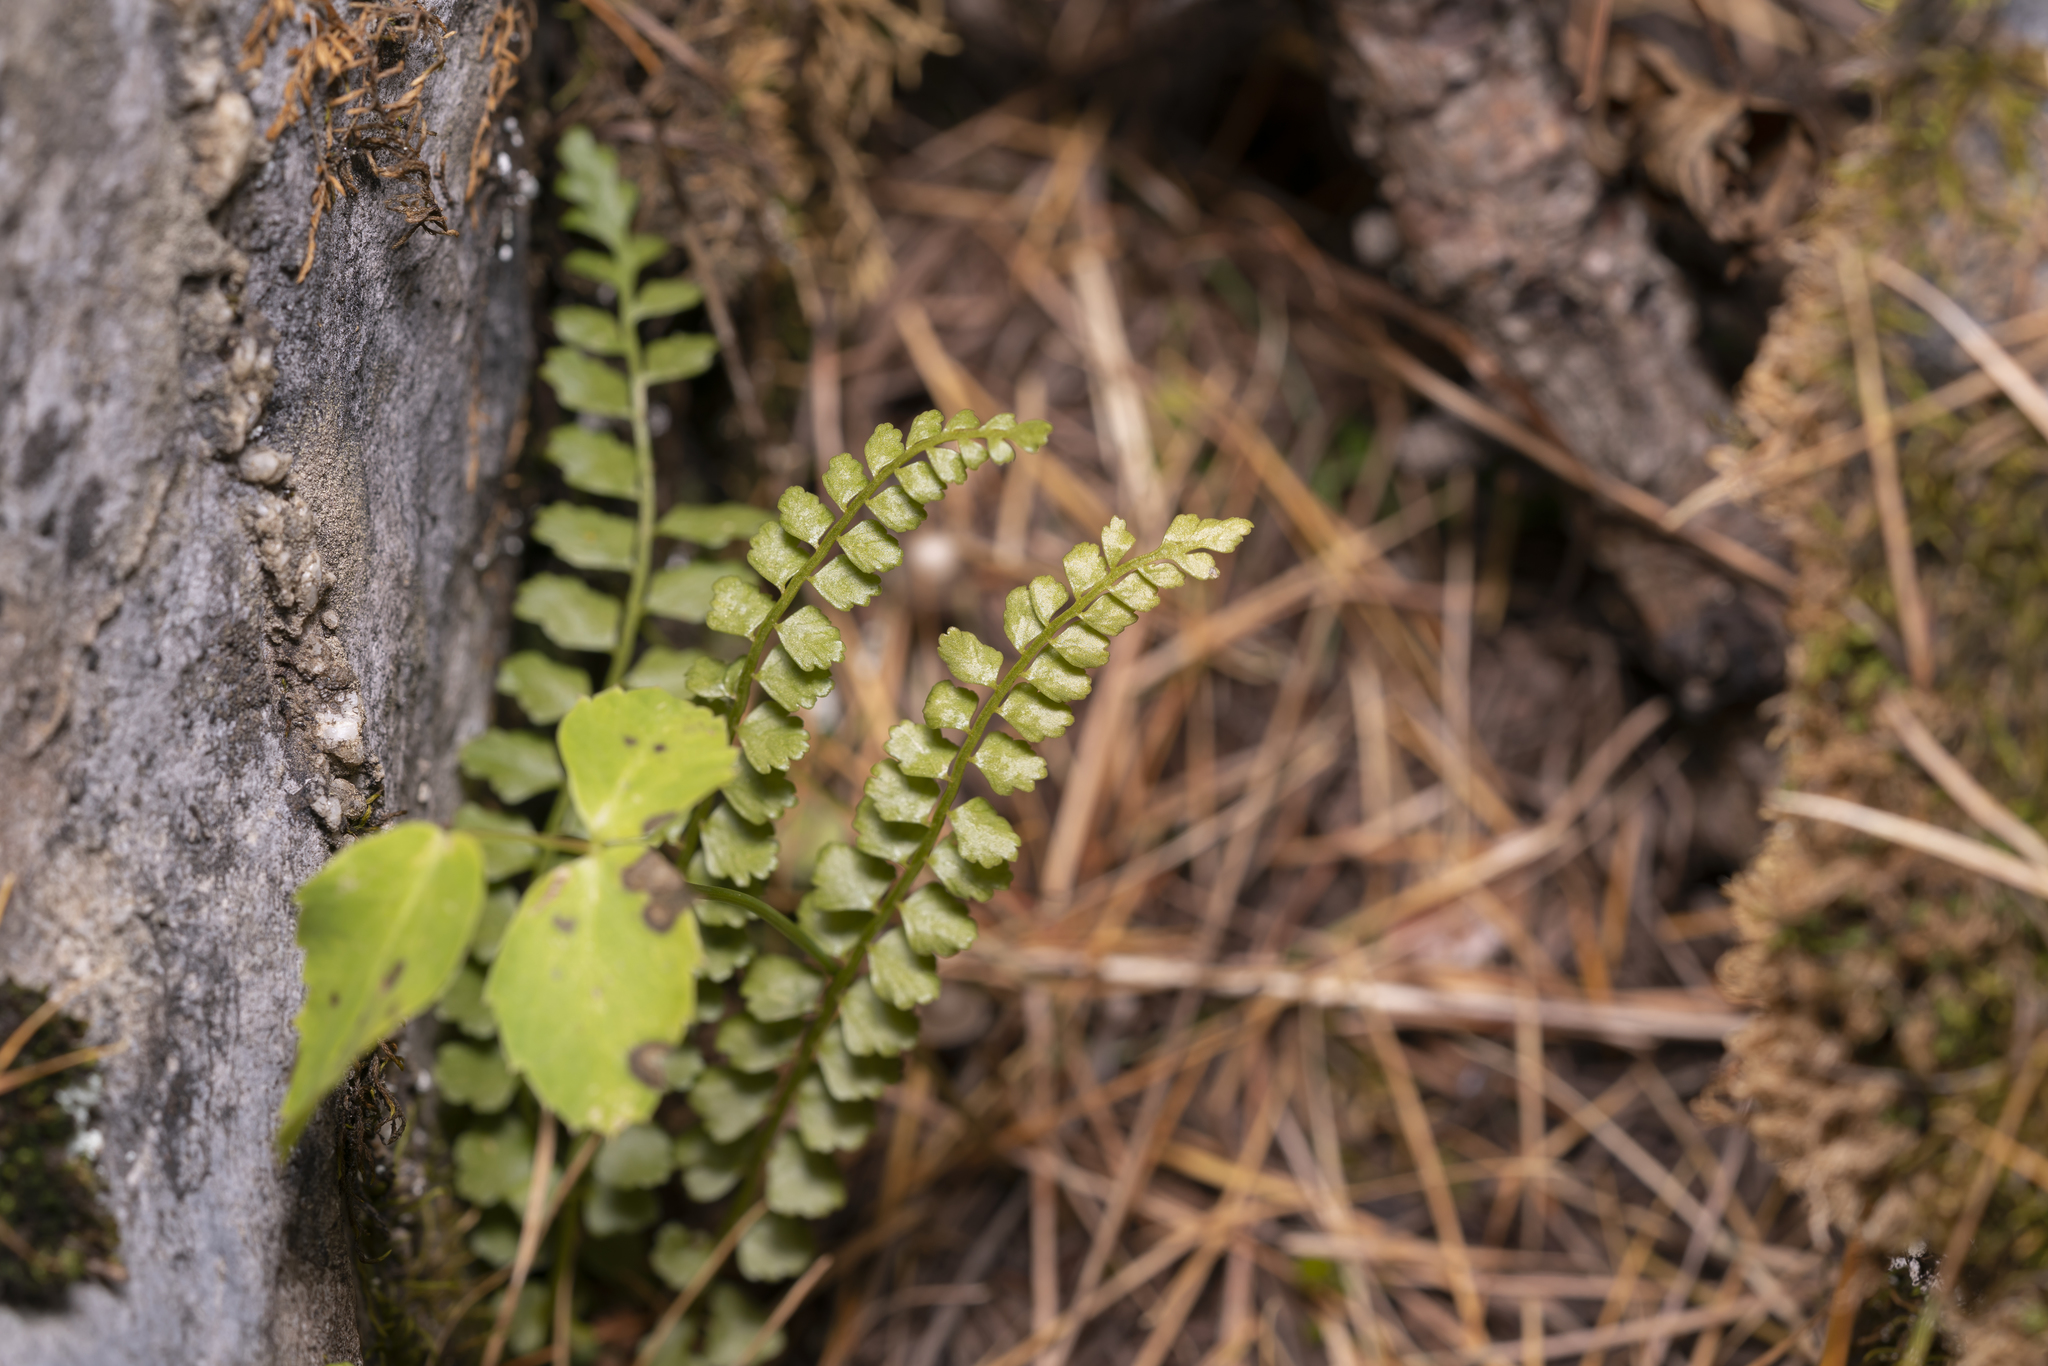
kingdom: Plantae
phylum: Tracheophyta
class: Polypodiopsida
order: Polypodiales
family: Aspleniaceae
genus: Asplenium
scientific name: Asplenium viride
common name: Green spleenwort
